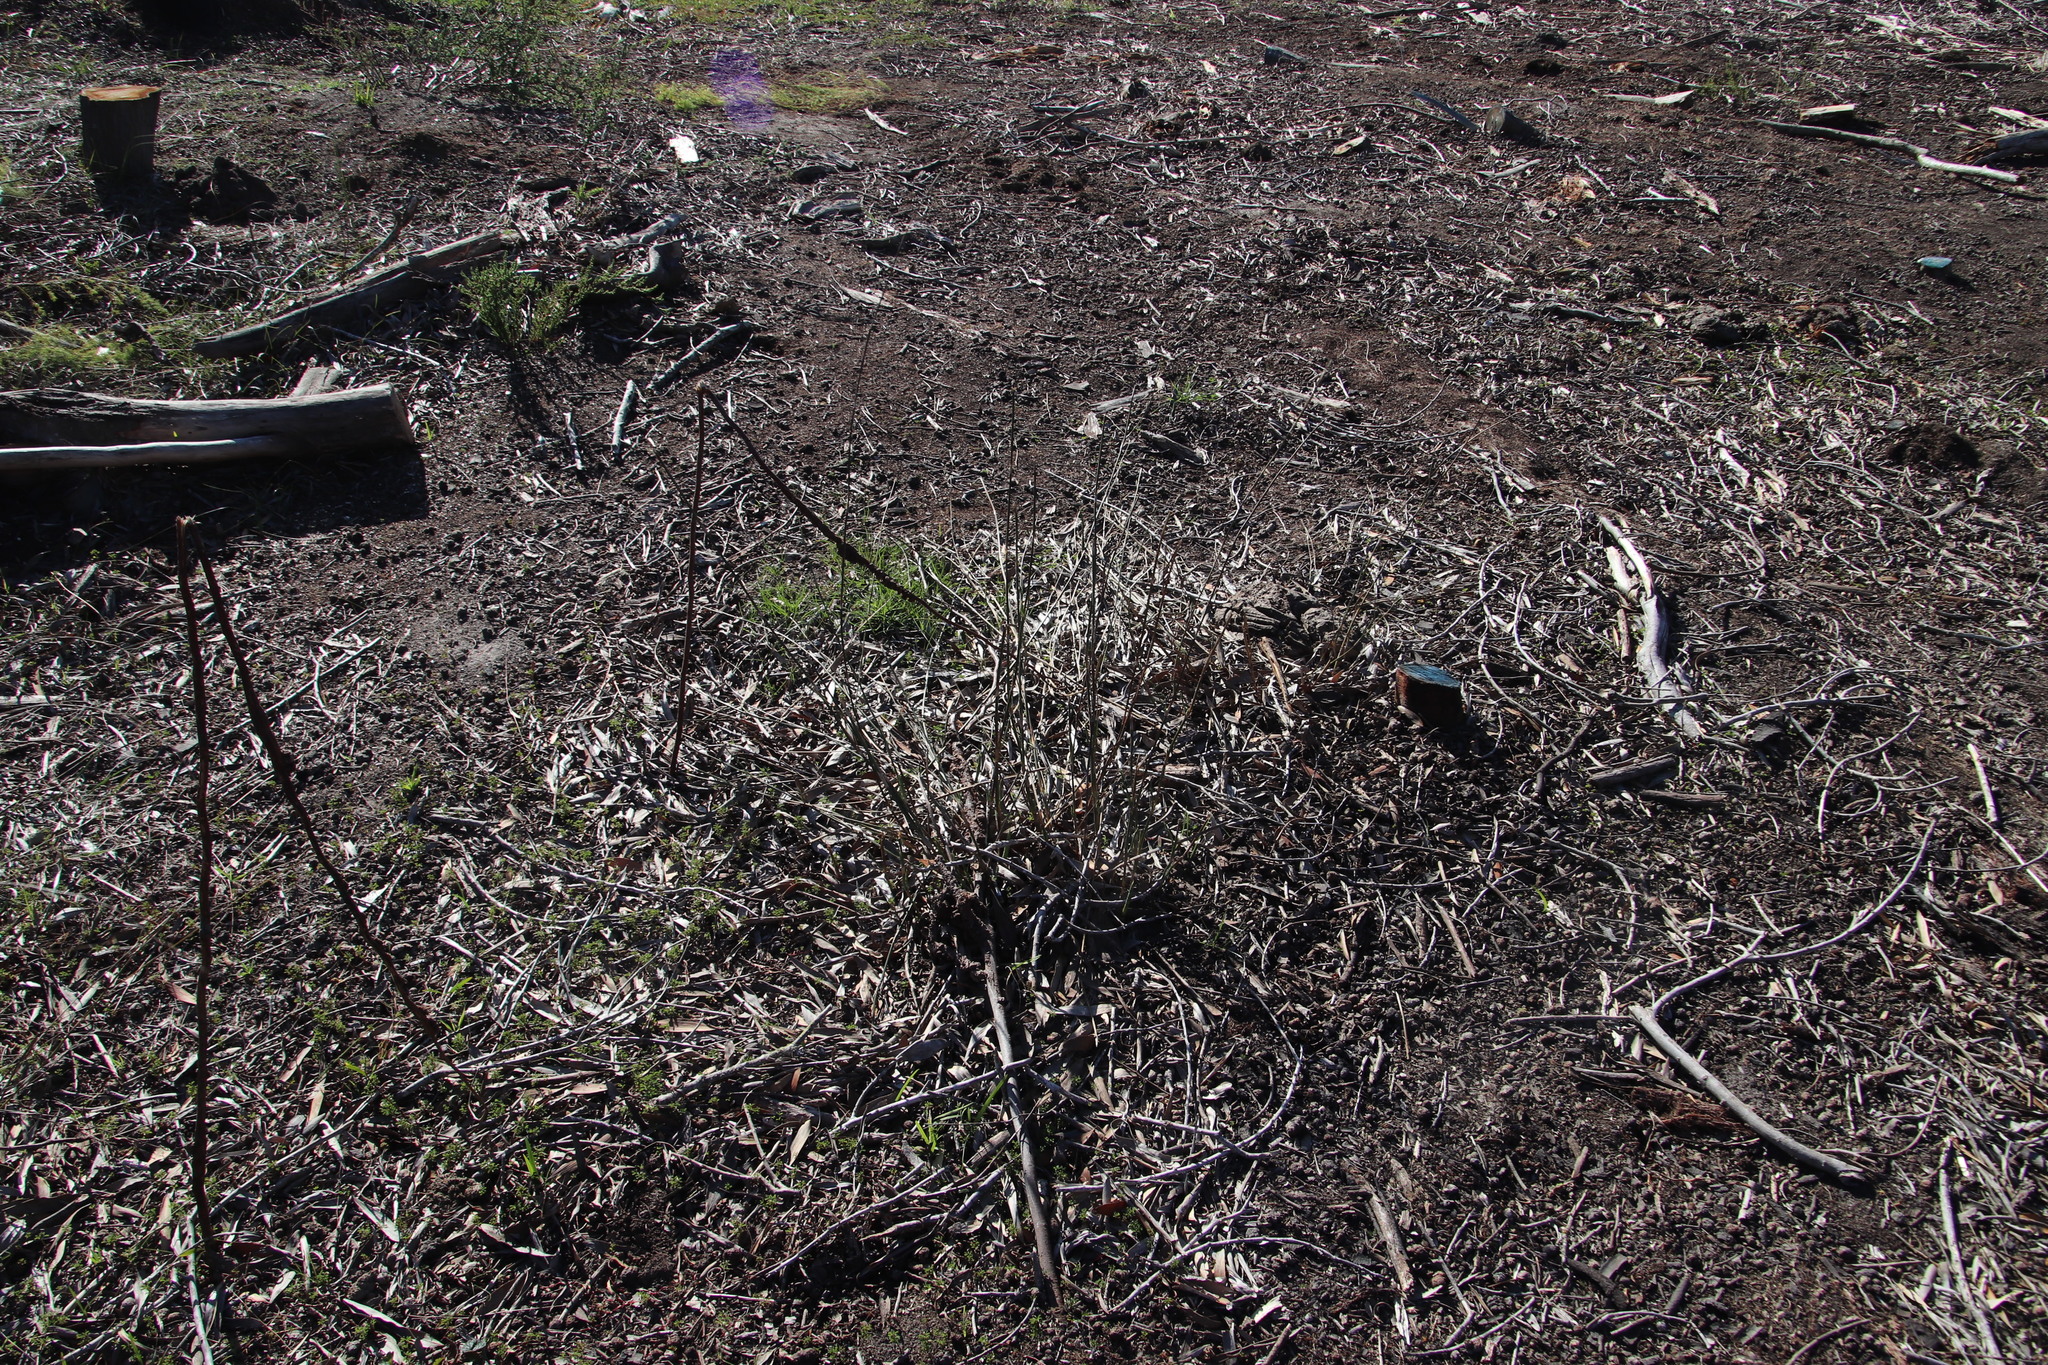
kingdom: Plantae
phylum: Tracheophyta
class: Liliopsida
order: Poales
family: Restionaceae
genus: Restio
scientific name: Restio tetragonus
